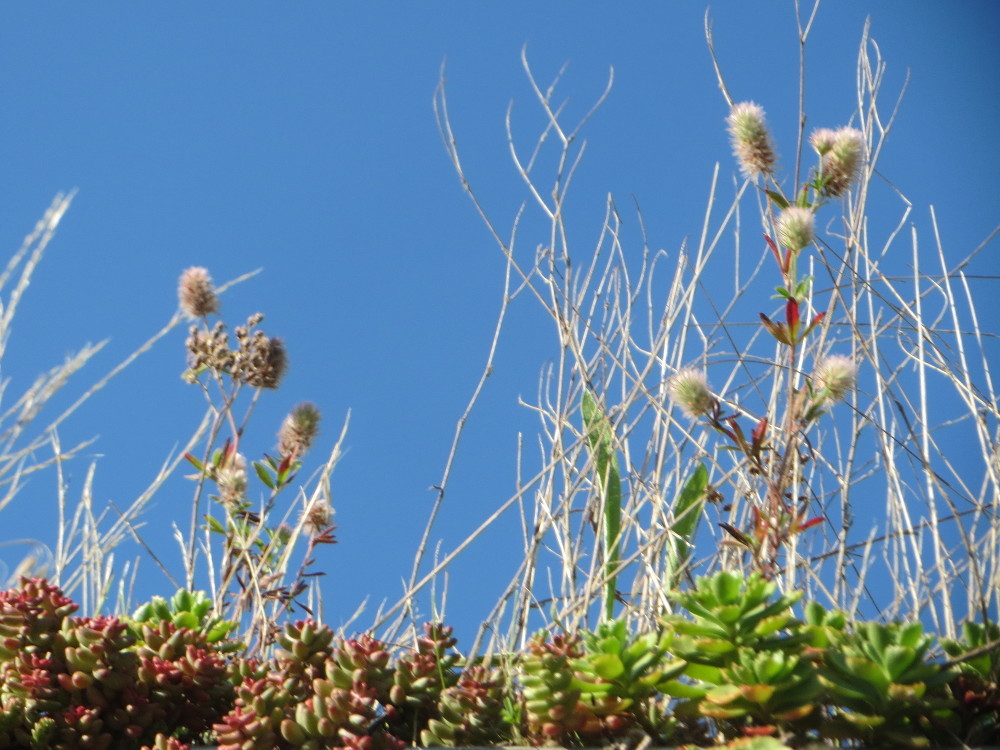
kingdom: Plantae
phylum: Tracheophyta
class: Magnoliopsida
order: Fabales
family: Fabaceae
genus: Trifolium
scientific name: Trifolium arvense
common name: Hare's-foot clover
